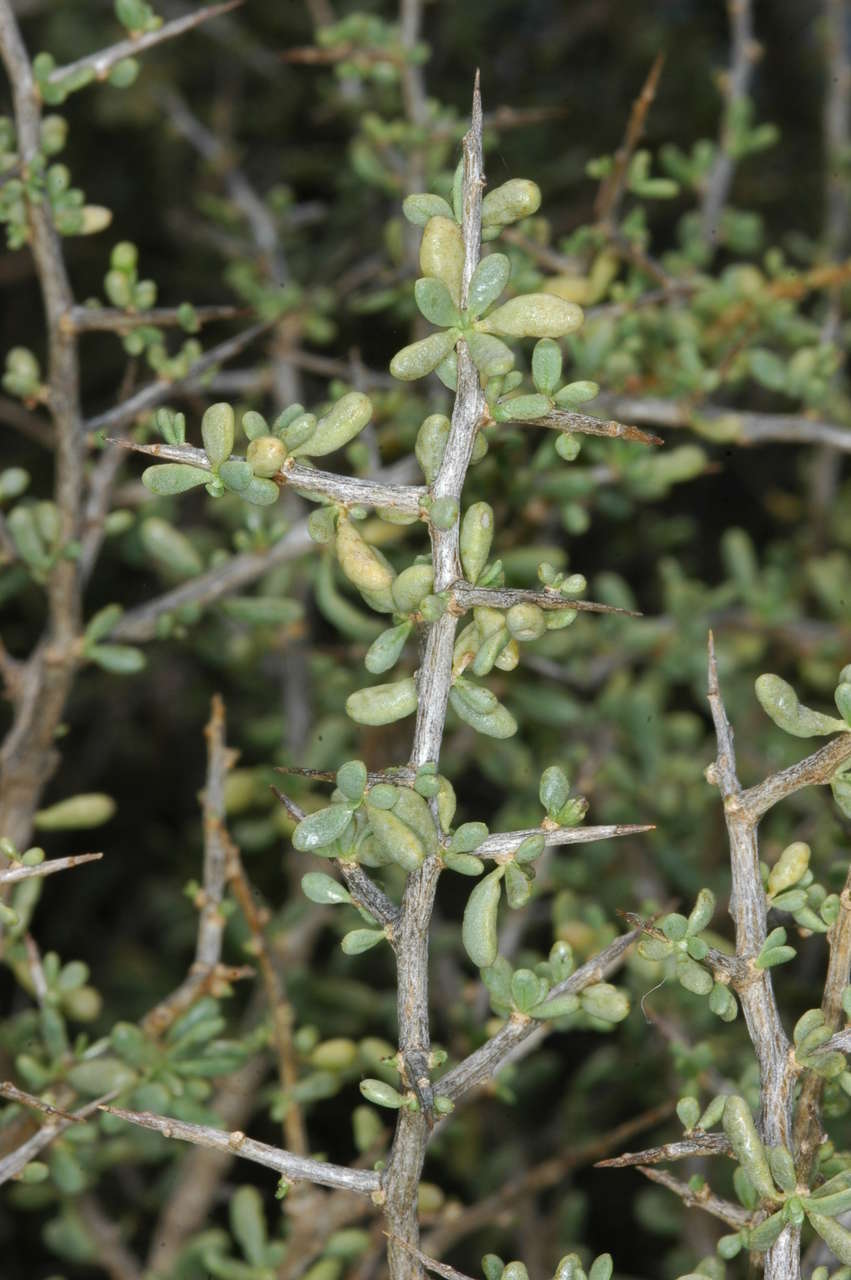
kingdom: Plantae
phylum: Tracheophyta
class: Magnoliopsida
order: Solanales
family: Solanaceae
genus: Lycium
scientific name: Lycium australe
